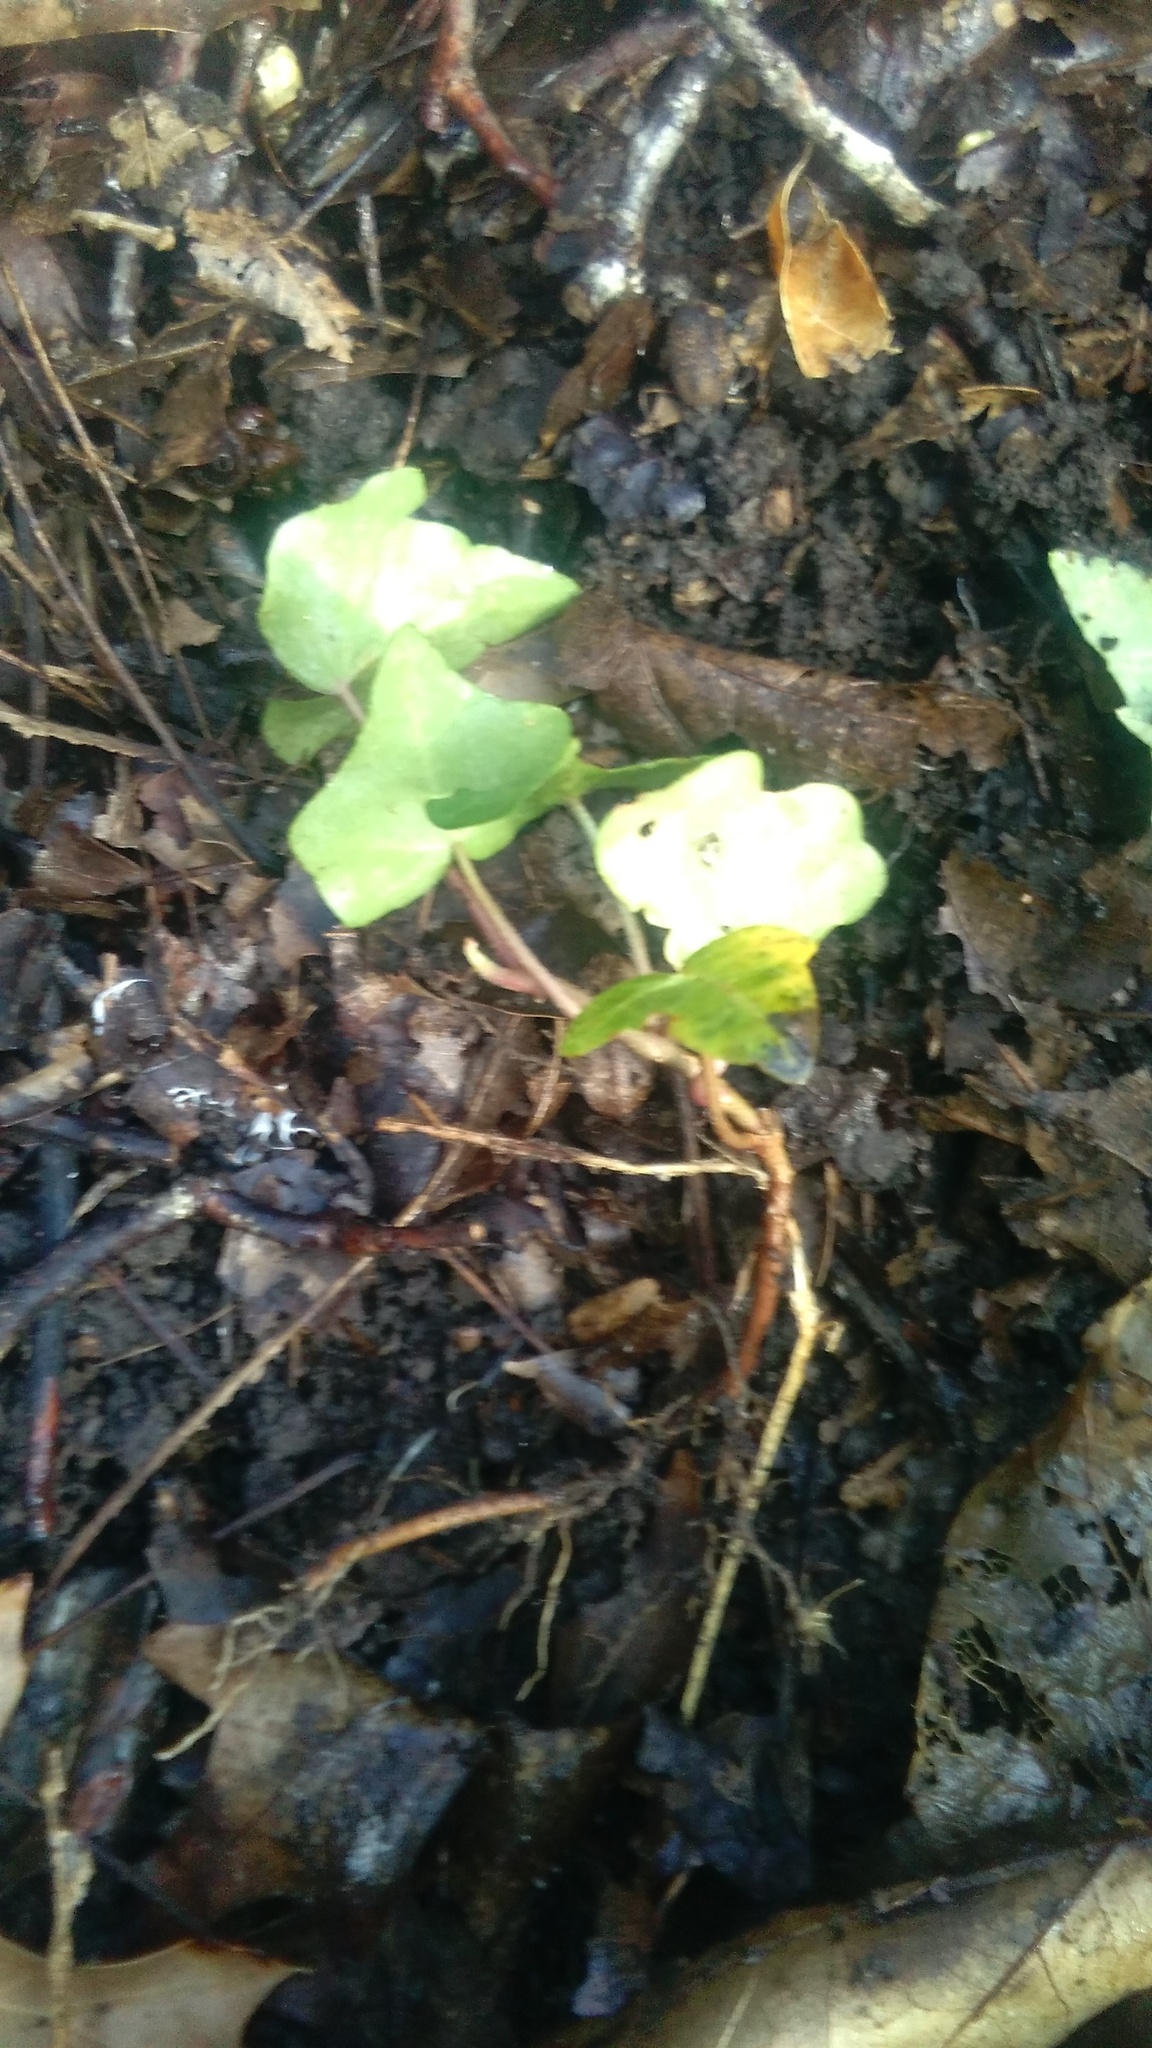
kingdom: Plantae
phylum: Tracheophyta
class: Magnoliopsida
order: Apiales
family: Araliaceae
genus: Hedera
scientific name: Hedera helix
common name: Ivy
